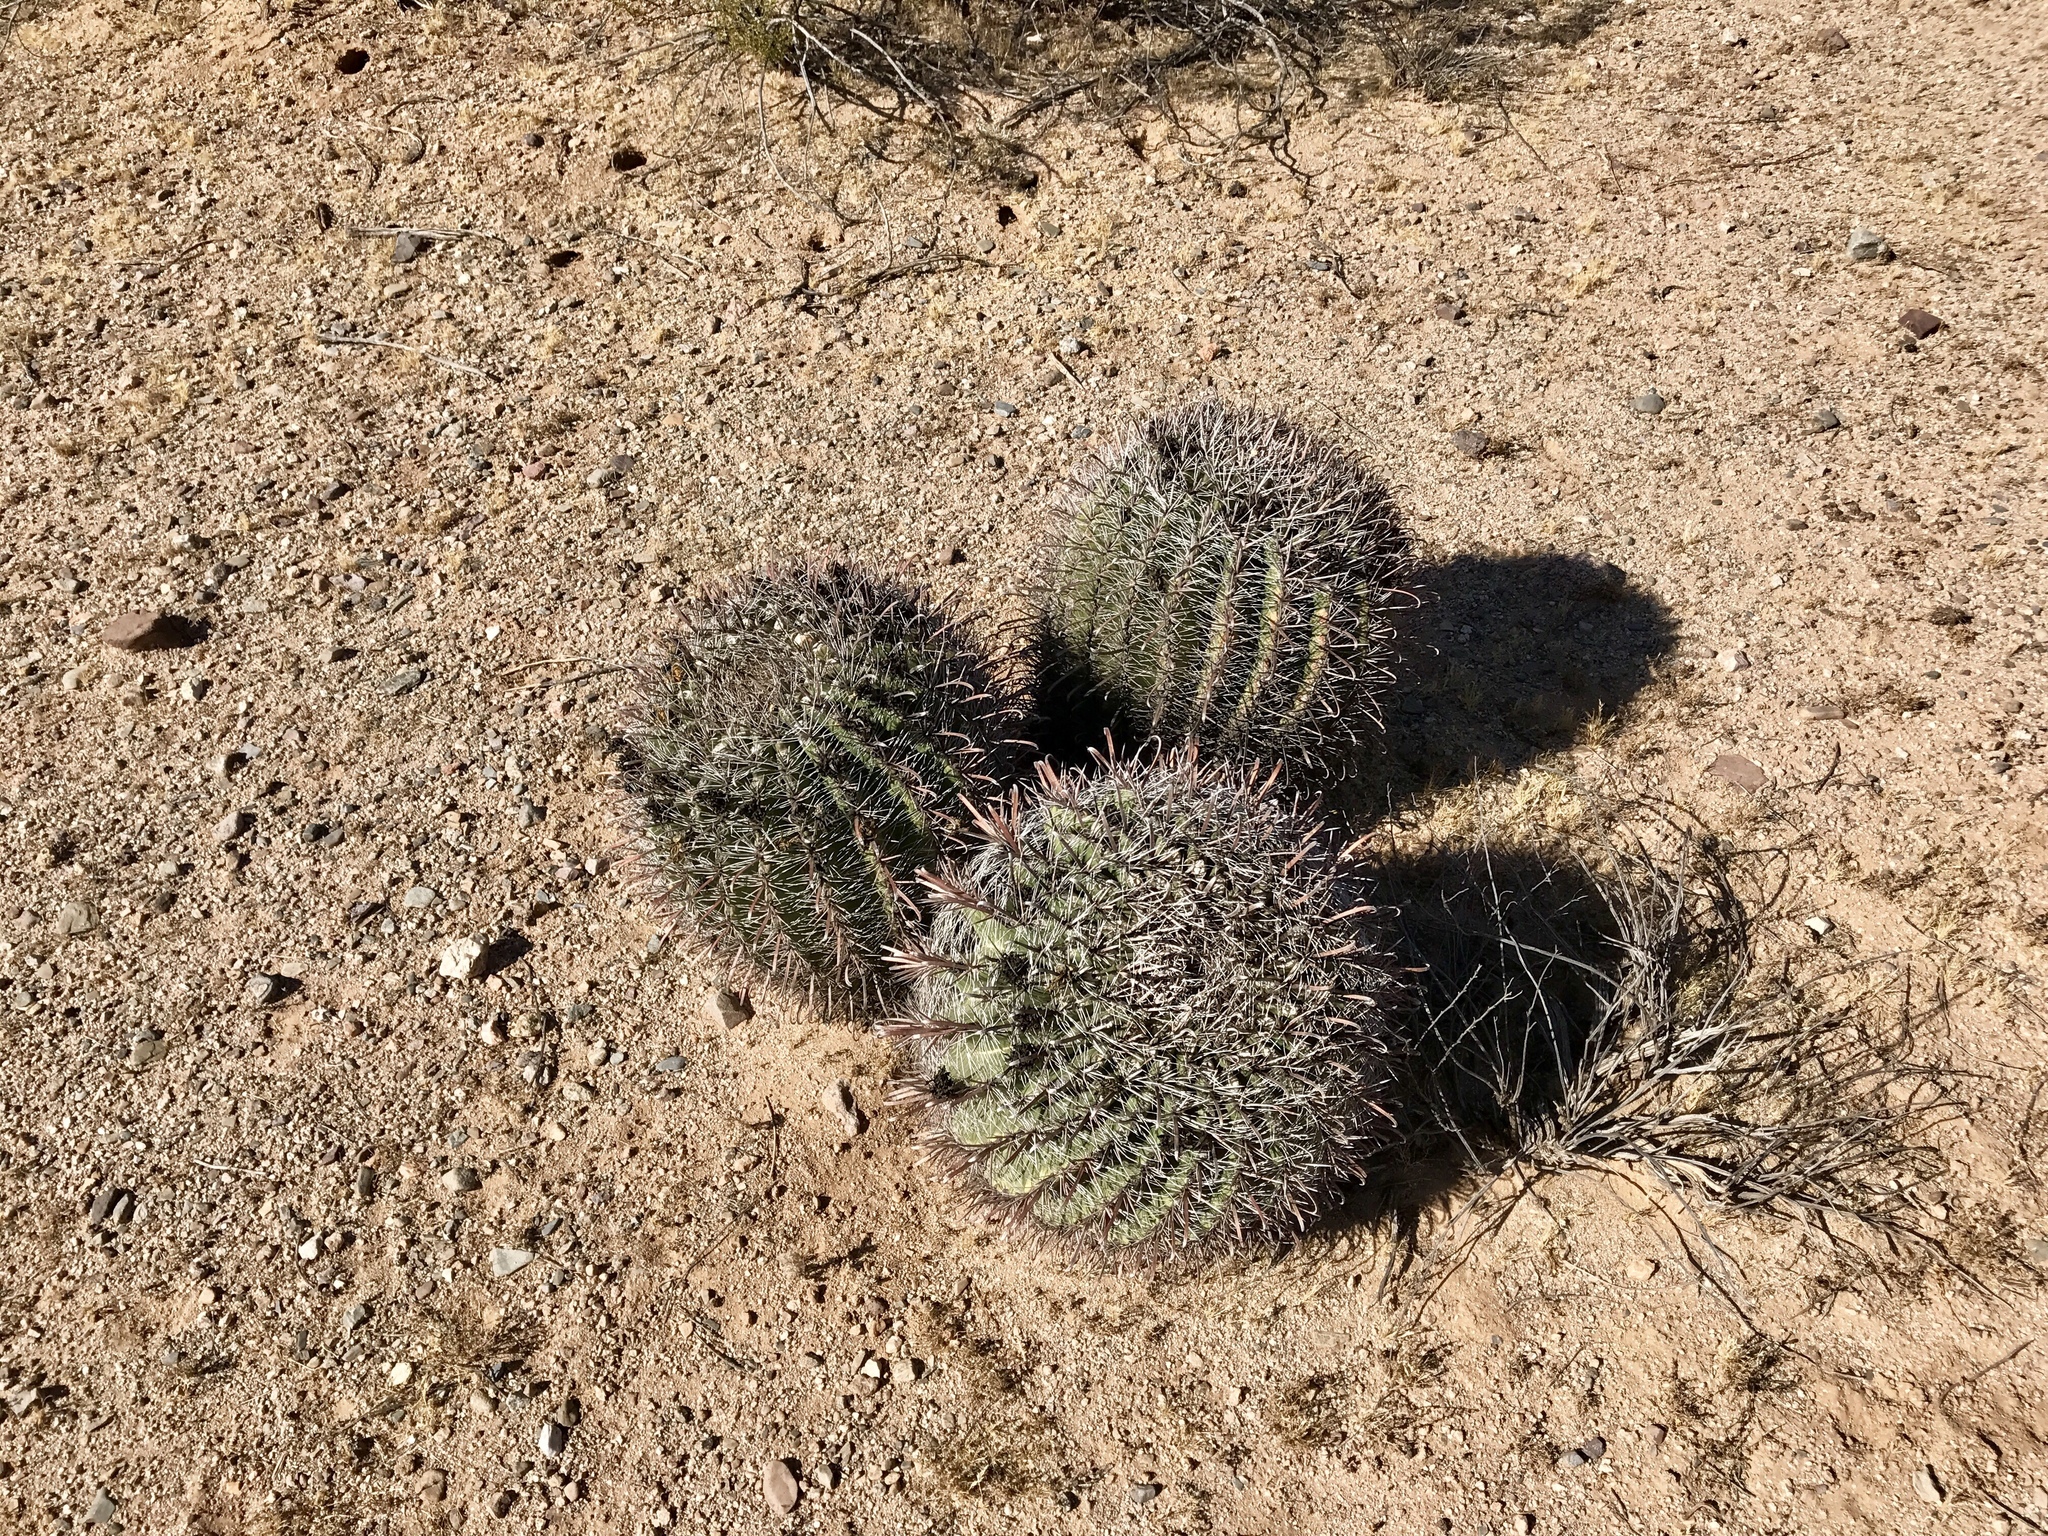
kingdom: Plantae
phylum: Tracheophyta
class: Magnoliopsida
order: Caryophyllales
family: Cactaceae
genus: Ferocactus
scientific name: Ferocactus wislizeni
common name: Candy barrel cactus
